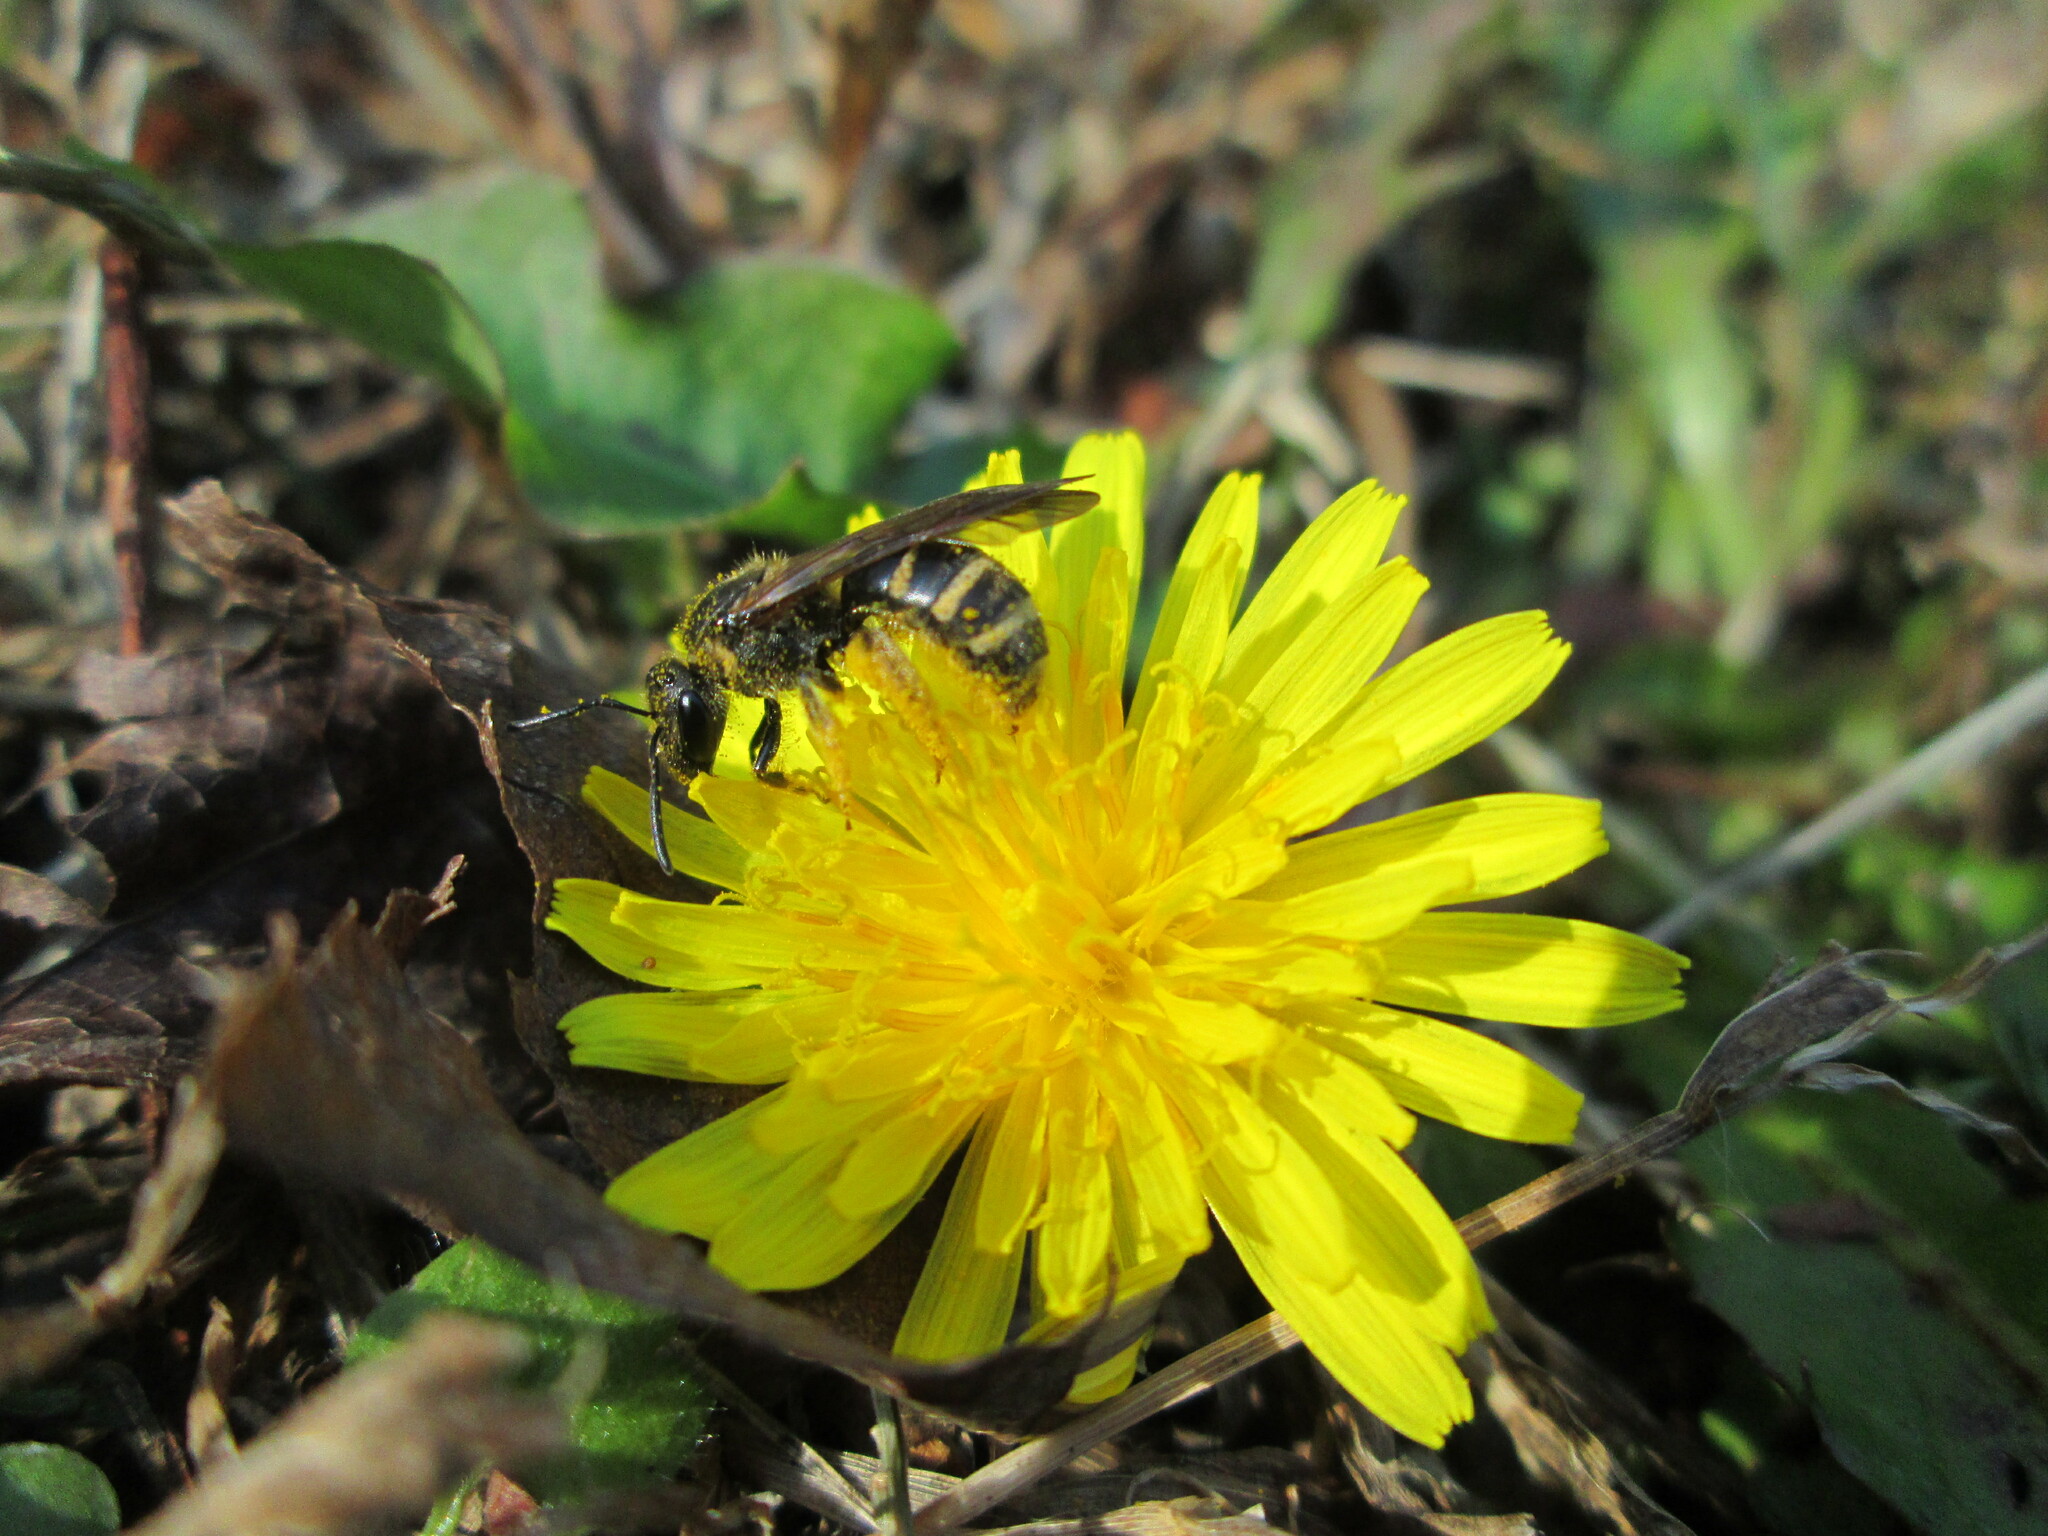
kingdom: Animalia
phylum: Arthropoda
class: Insecta
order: Hymenoptera
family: Halictidae
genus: Lasioglossum
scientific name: Lasioglossum fuscipenne
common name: Brown-winged sweat bee
